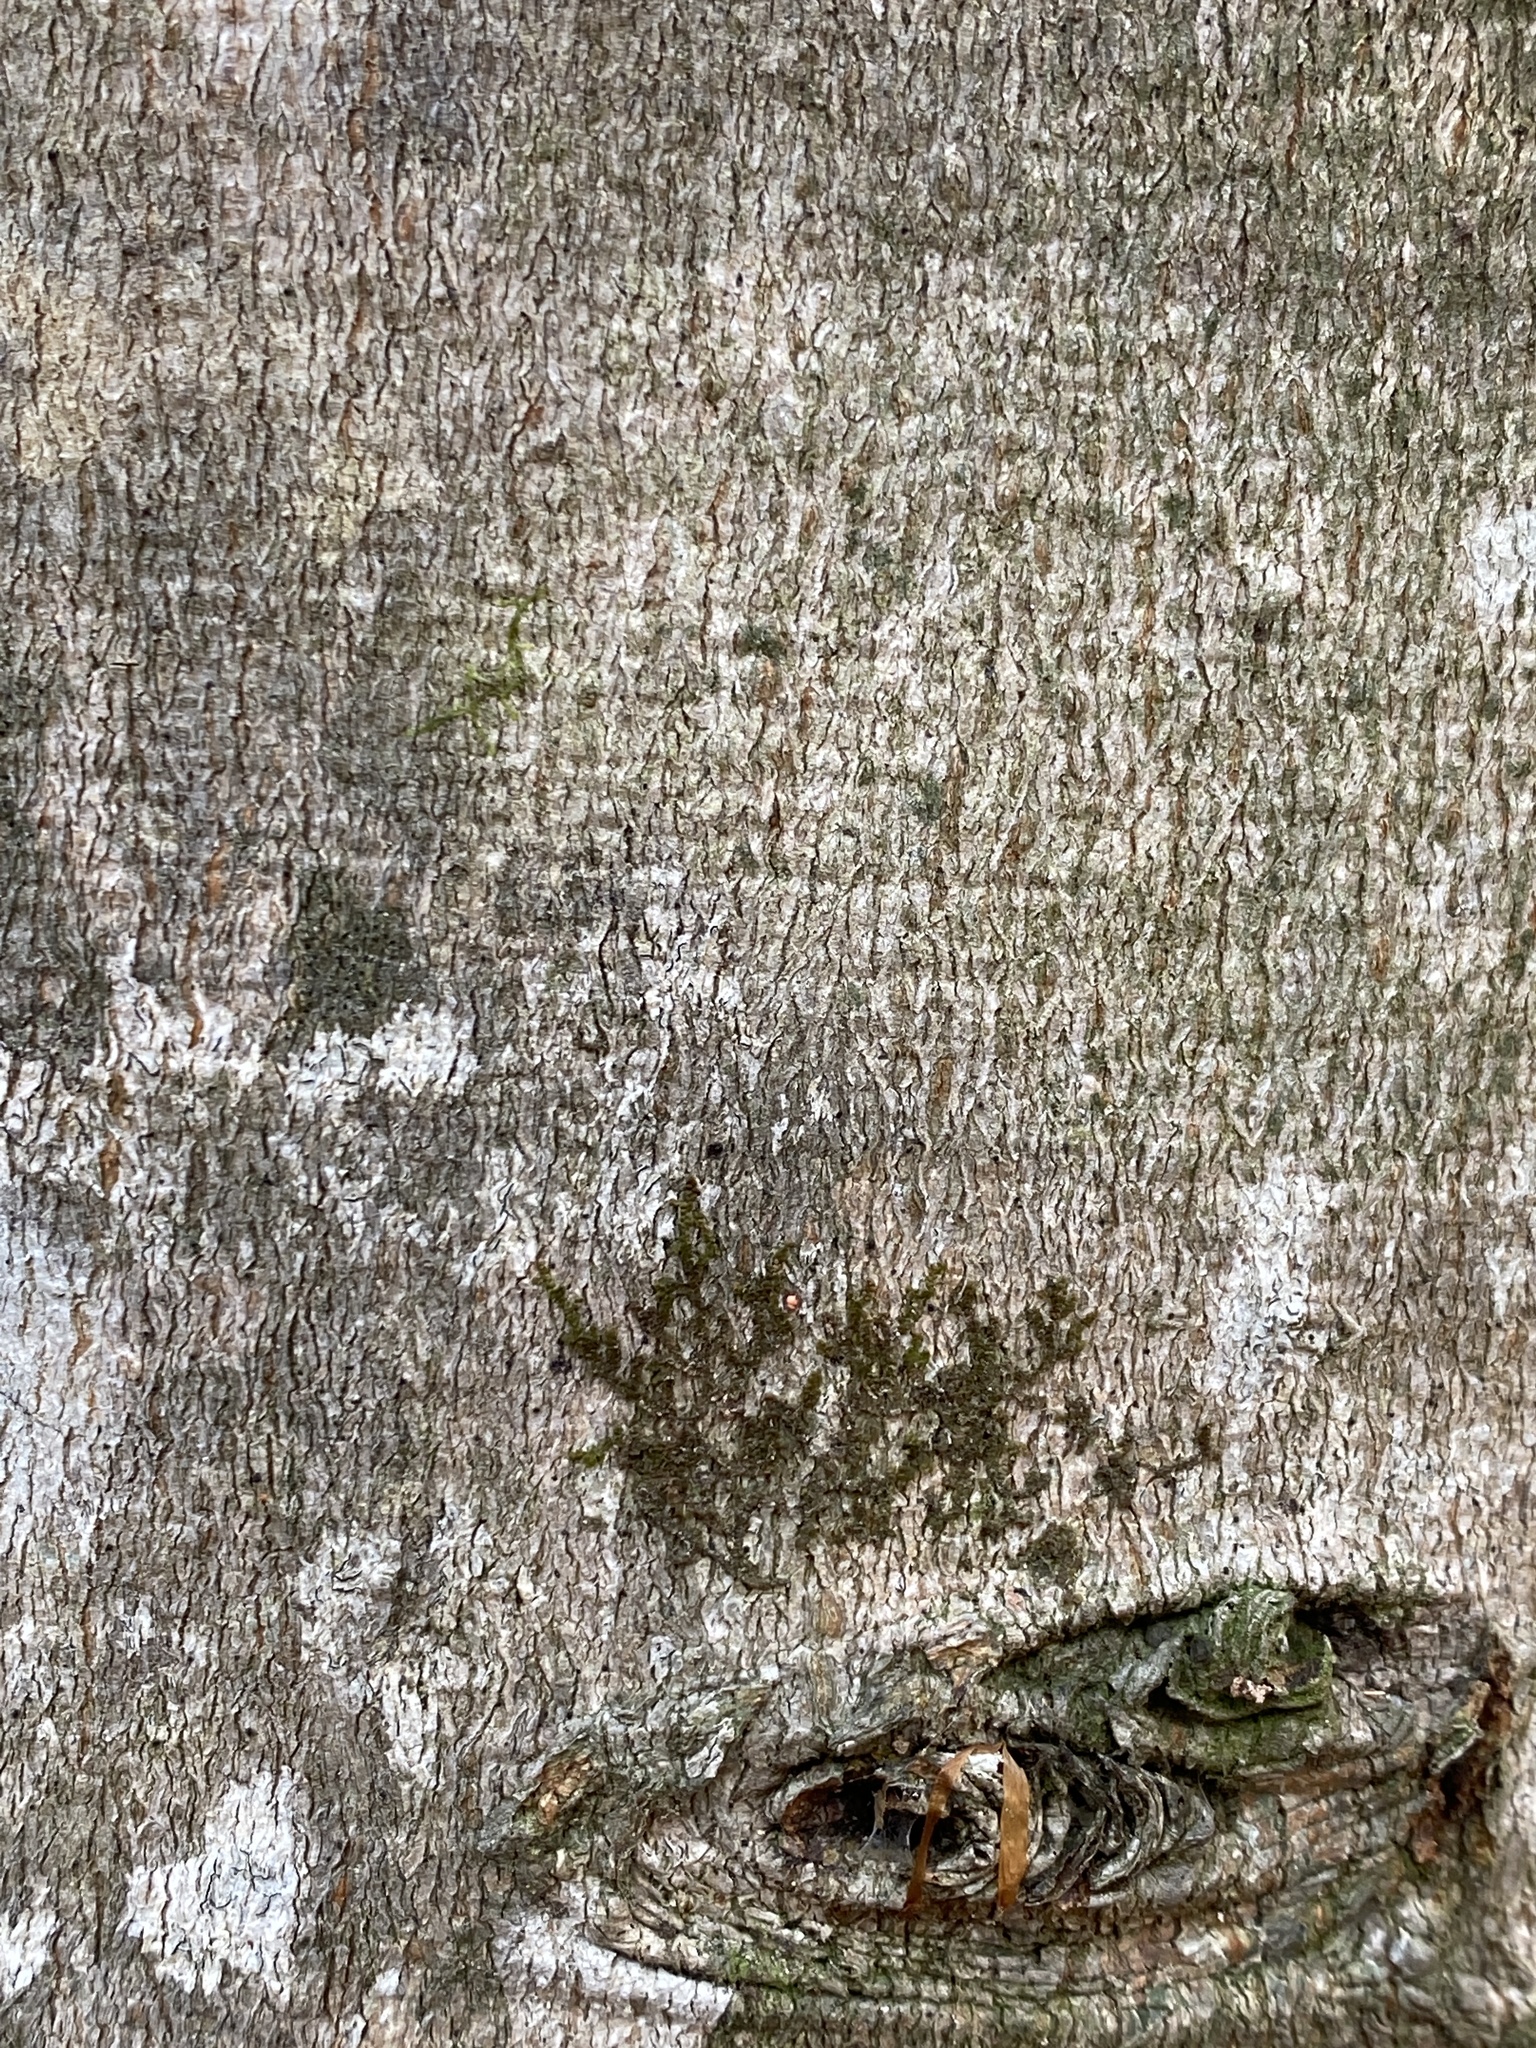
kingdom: Plantae
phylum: Tracheophyta
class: Magnoliopsida
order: Fagales
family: Fagaceae
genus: Fagus
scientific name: Fagus grandifolia
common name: American beech
